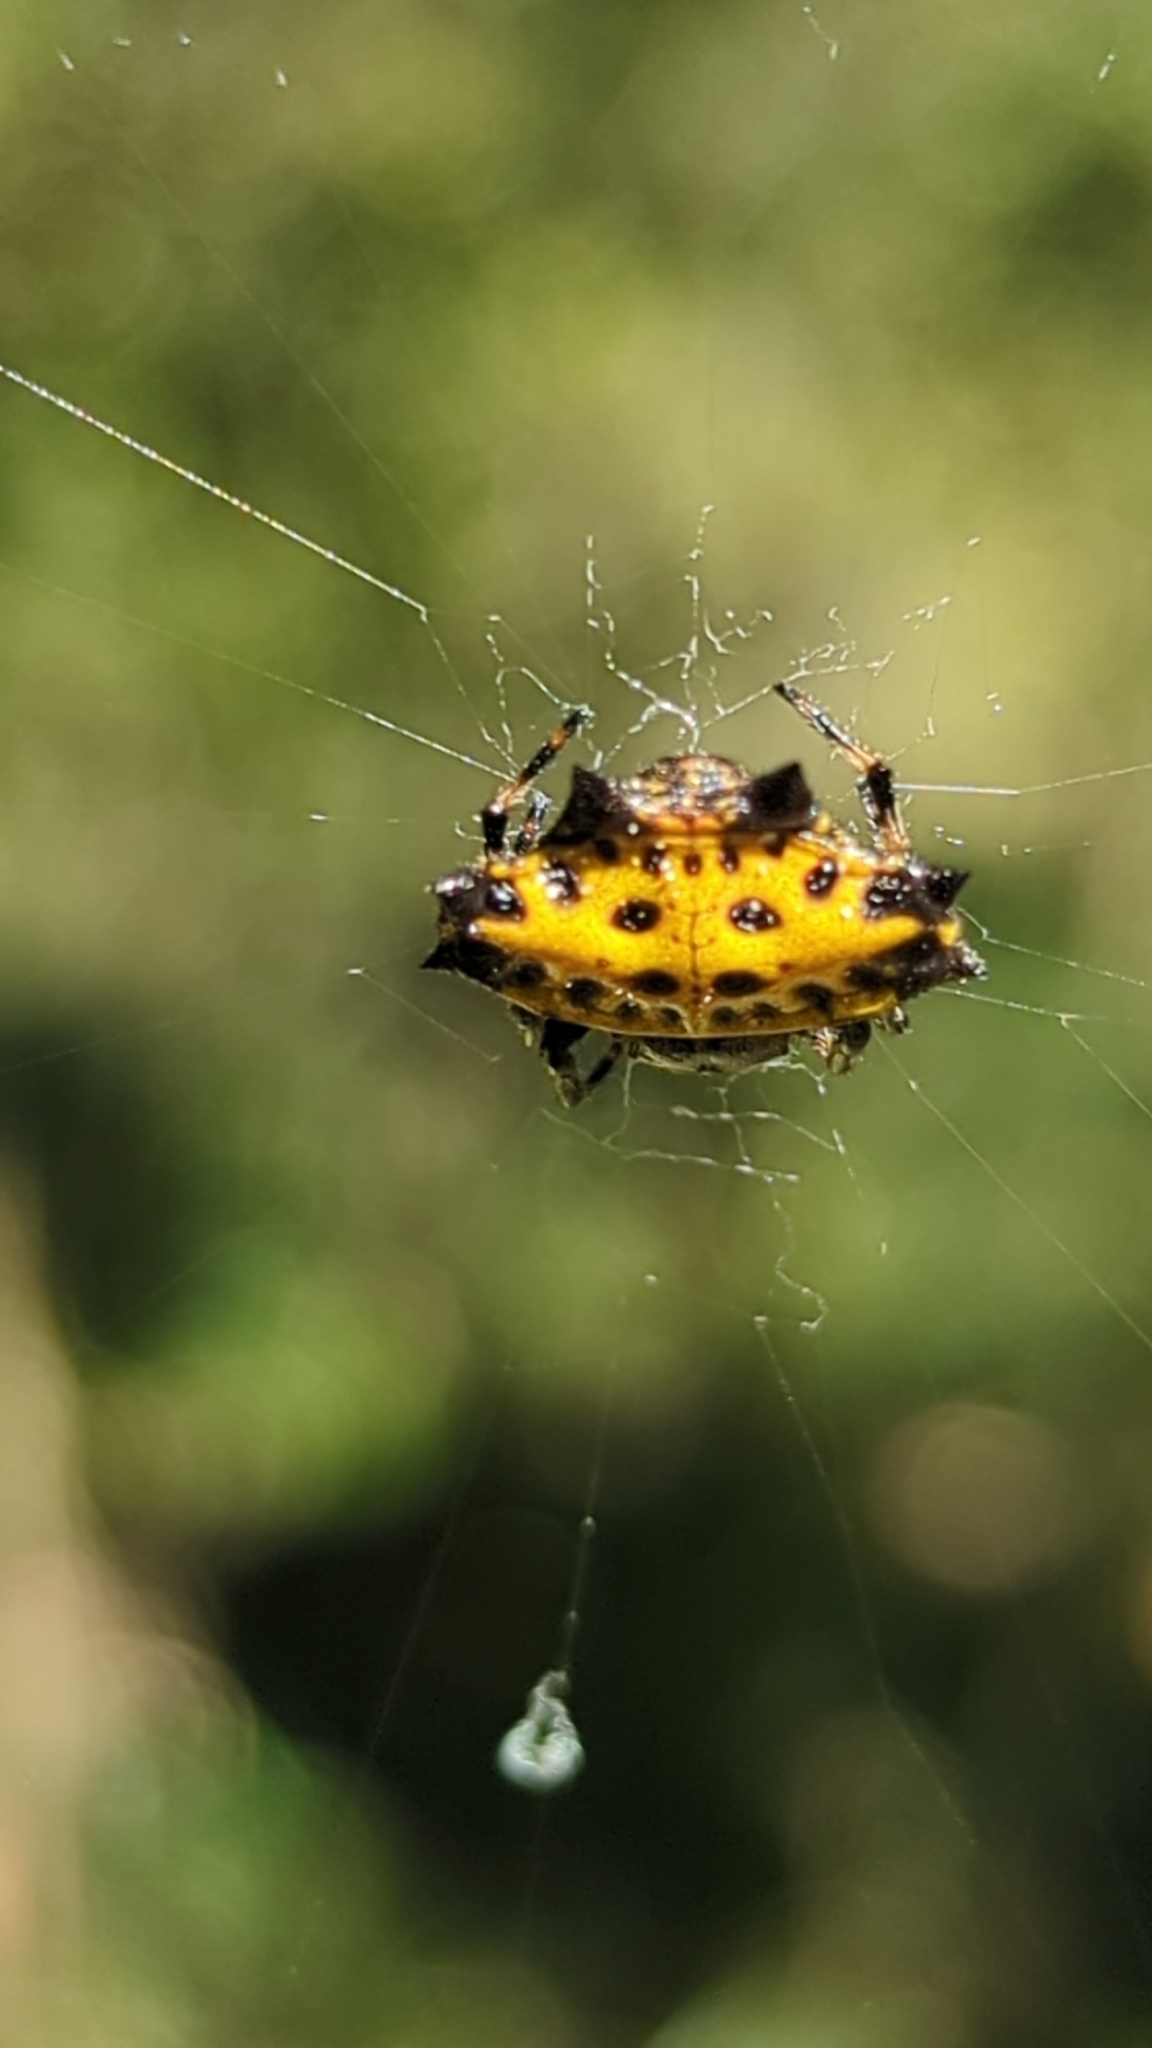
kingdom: Animalia
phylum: Arthropoda
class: Arachnida
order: Araneae
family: Araneidae
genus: Gasteracantha
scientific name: Gasteracantha cancriformis
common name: Orb weavers
